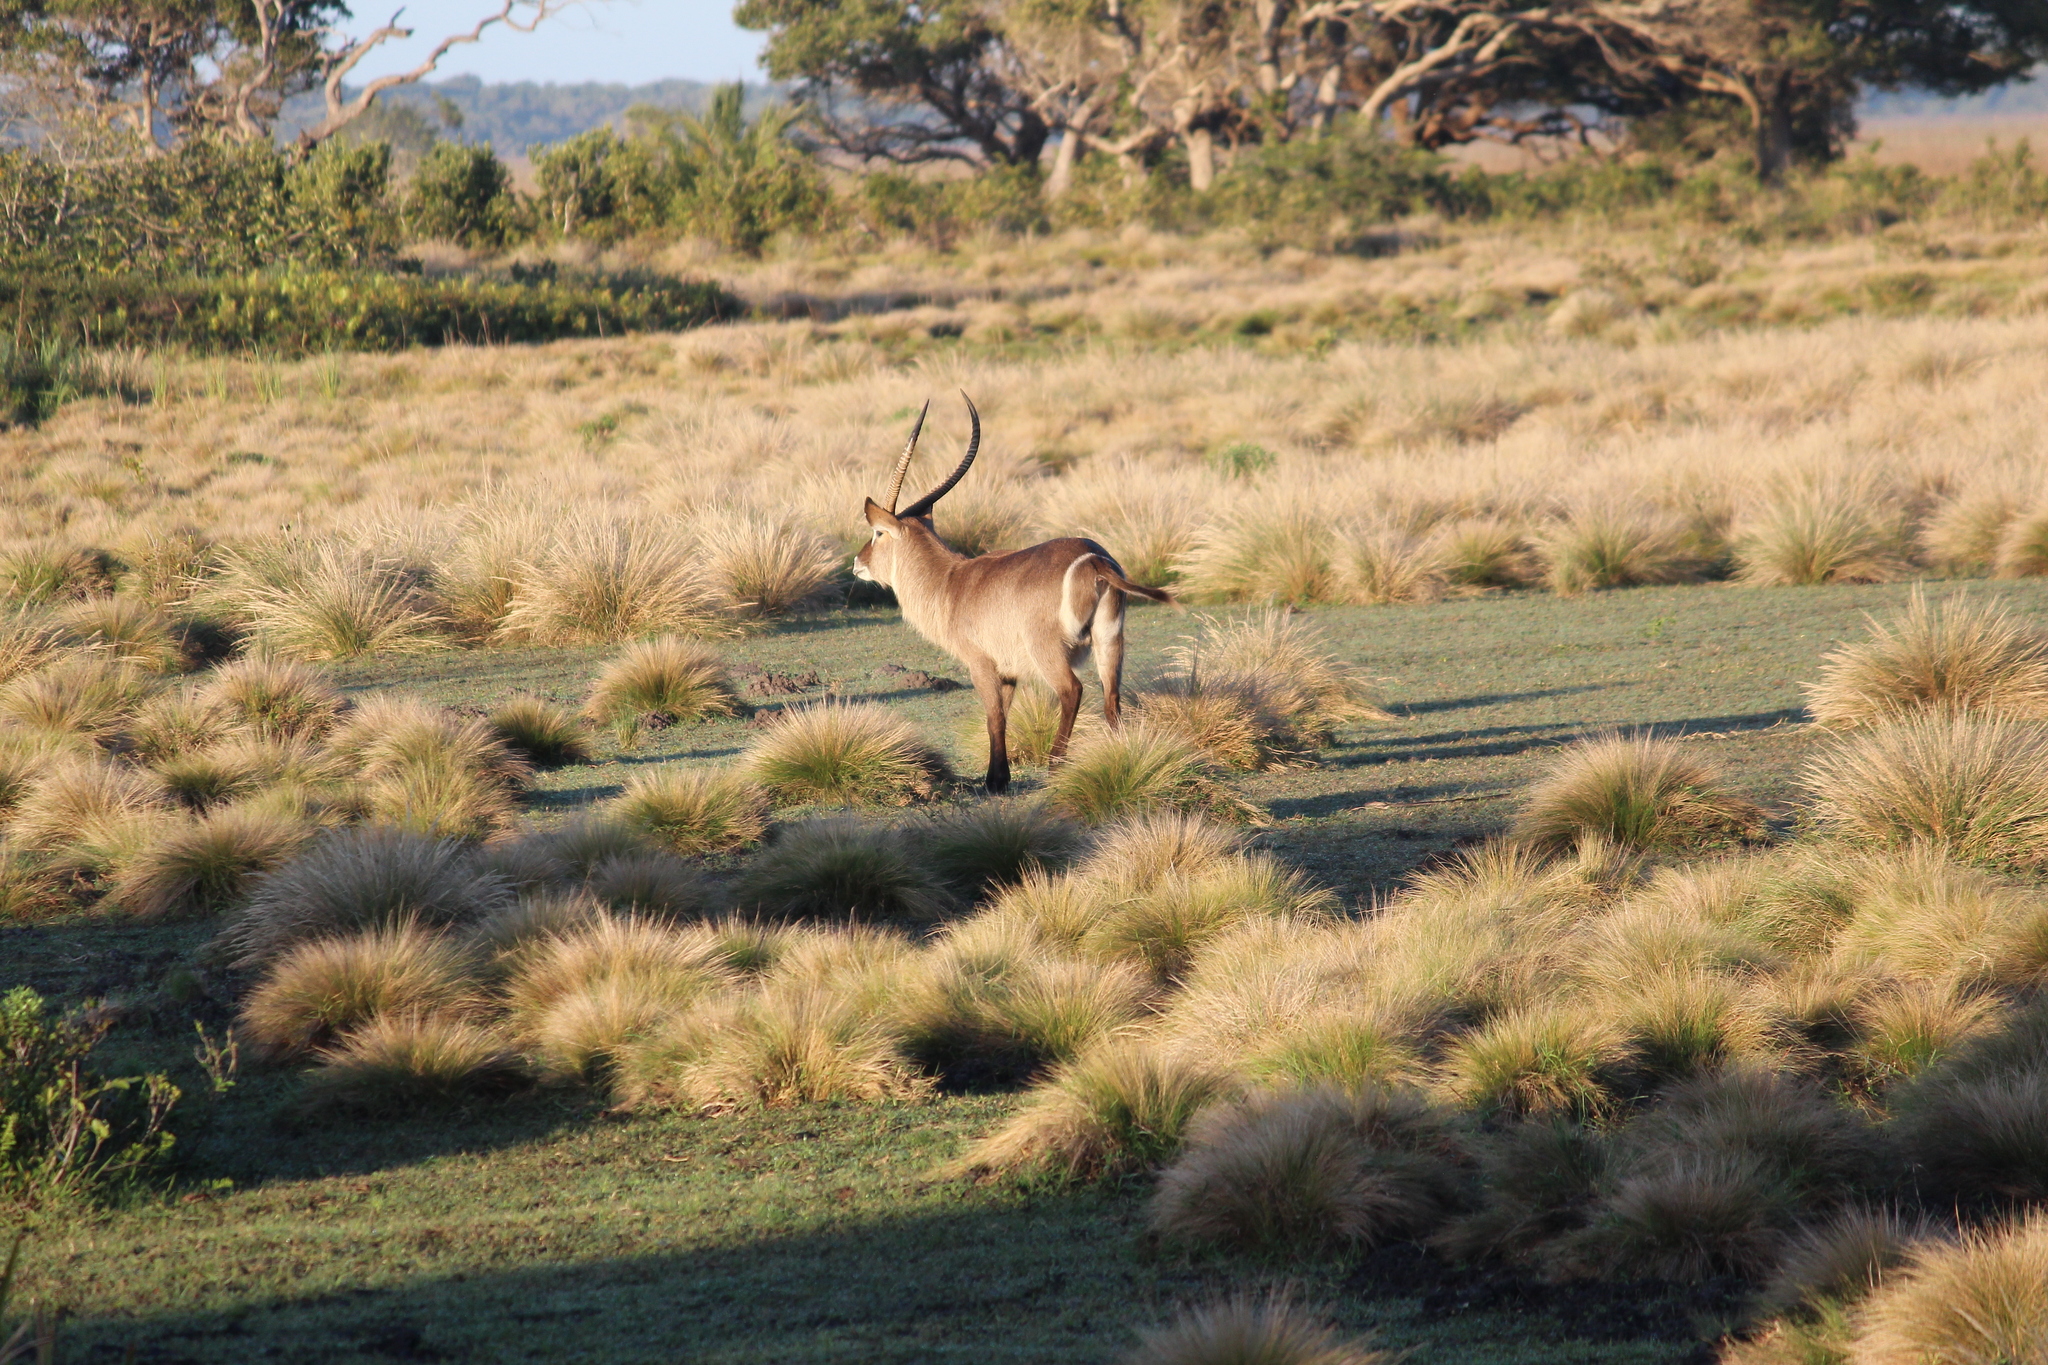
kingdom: Animalia
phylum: Chordata
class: Mammalia
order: Artiodactyla
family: Bovidae
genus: Kobus
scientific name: Kobus ellipsiprymnus
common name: Waterbuck
